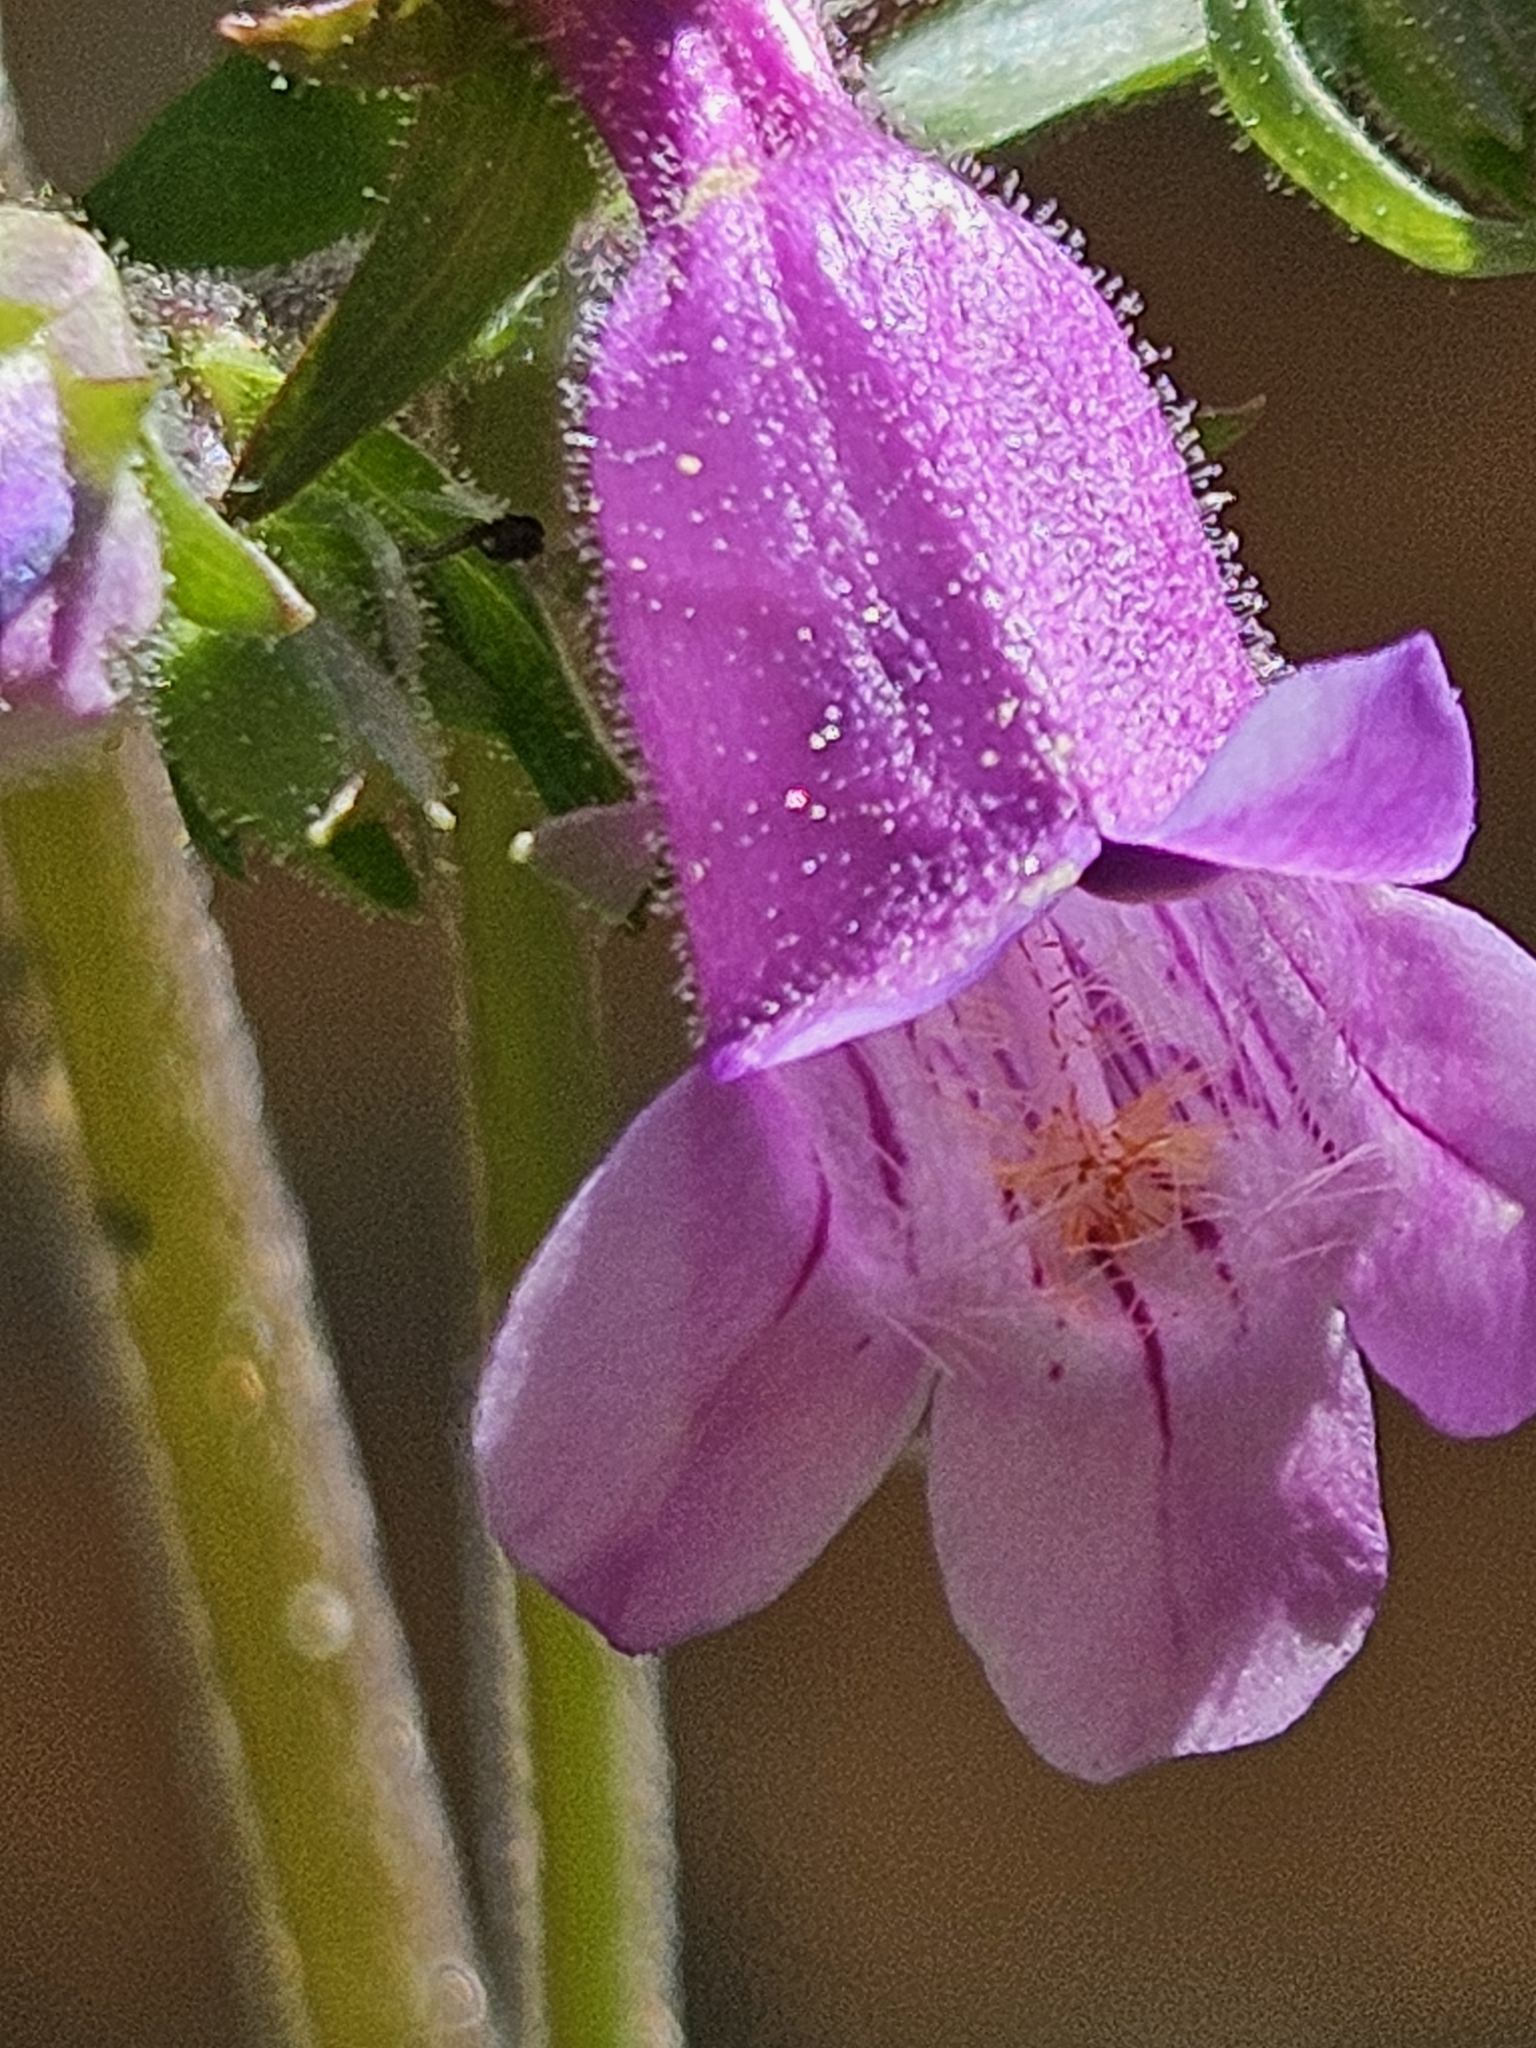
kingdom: Plantae
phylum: Tracheophyta
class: Magnoliopsida
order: Lamiales
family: Plantaginaceae
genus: Penstemon
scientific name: Penstemon tenuis
